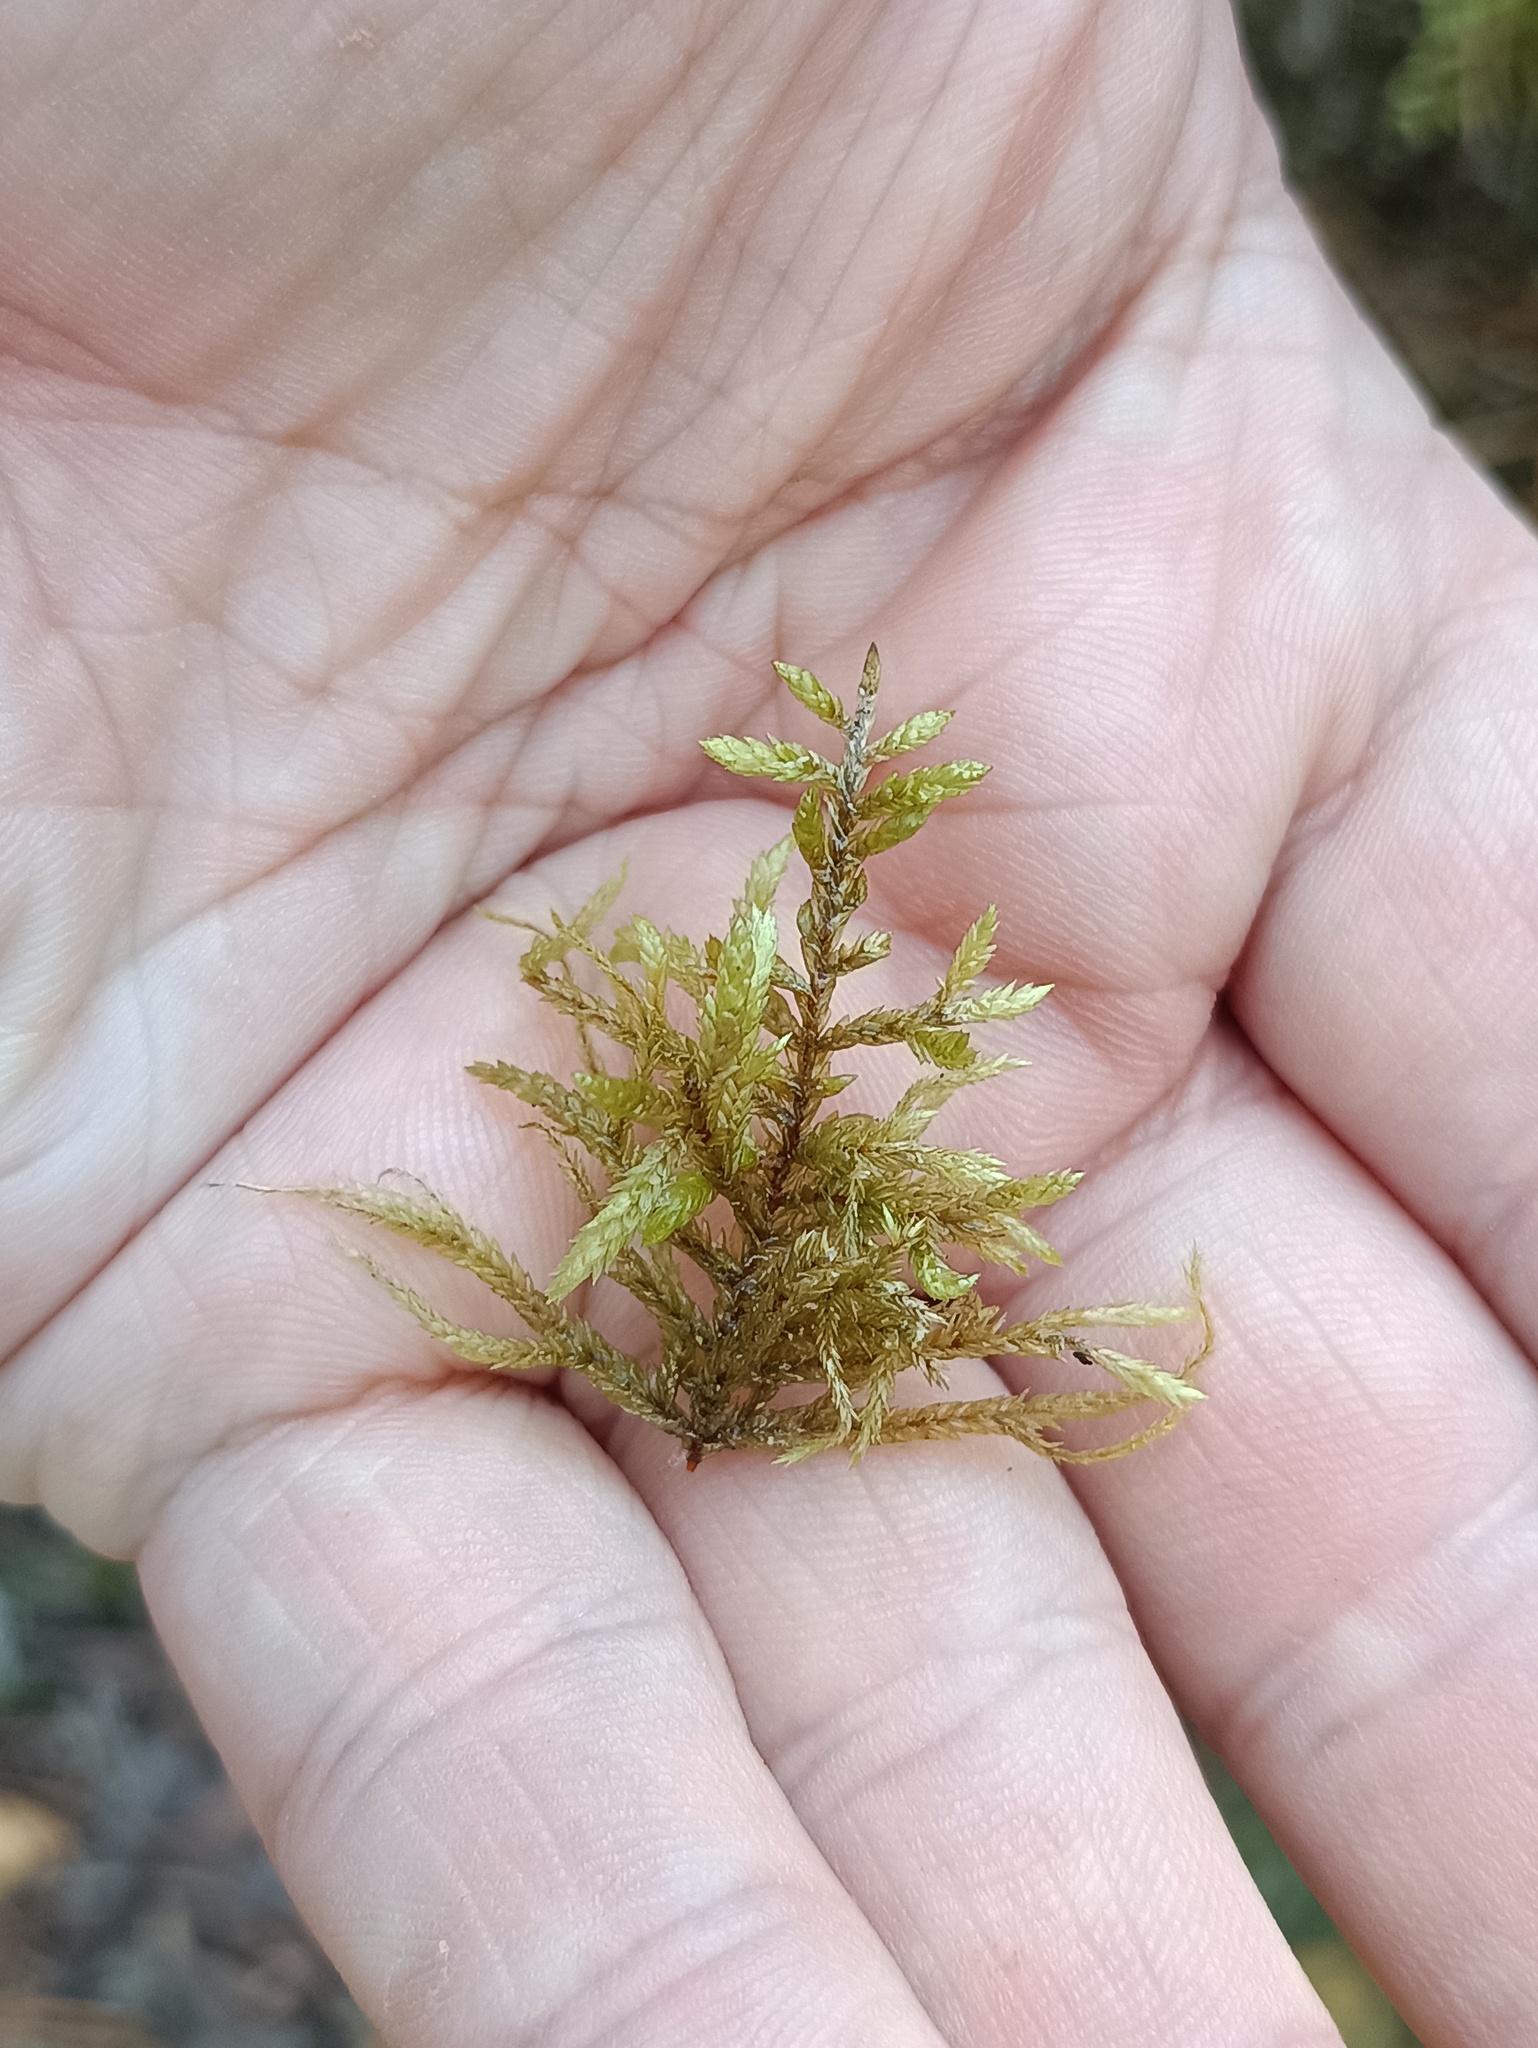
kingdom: Plantae
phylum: Bryophyta
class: Bryopsida
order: Hypnales
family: Hylocomiaceae
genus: Pleurozium
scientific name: Pleurozium schreberi
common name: Red-stemmed feather moss
